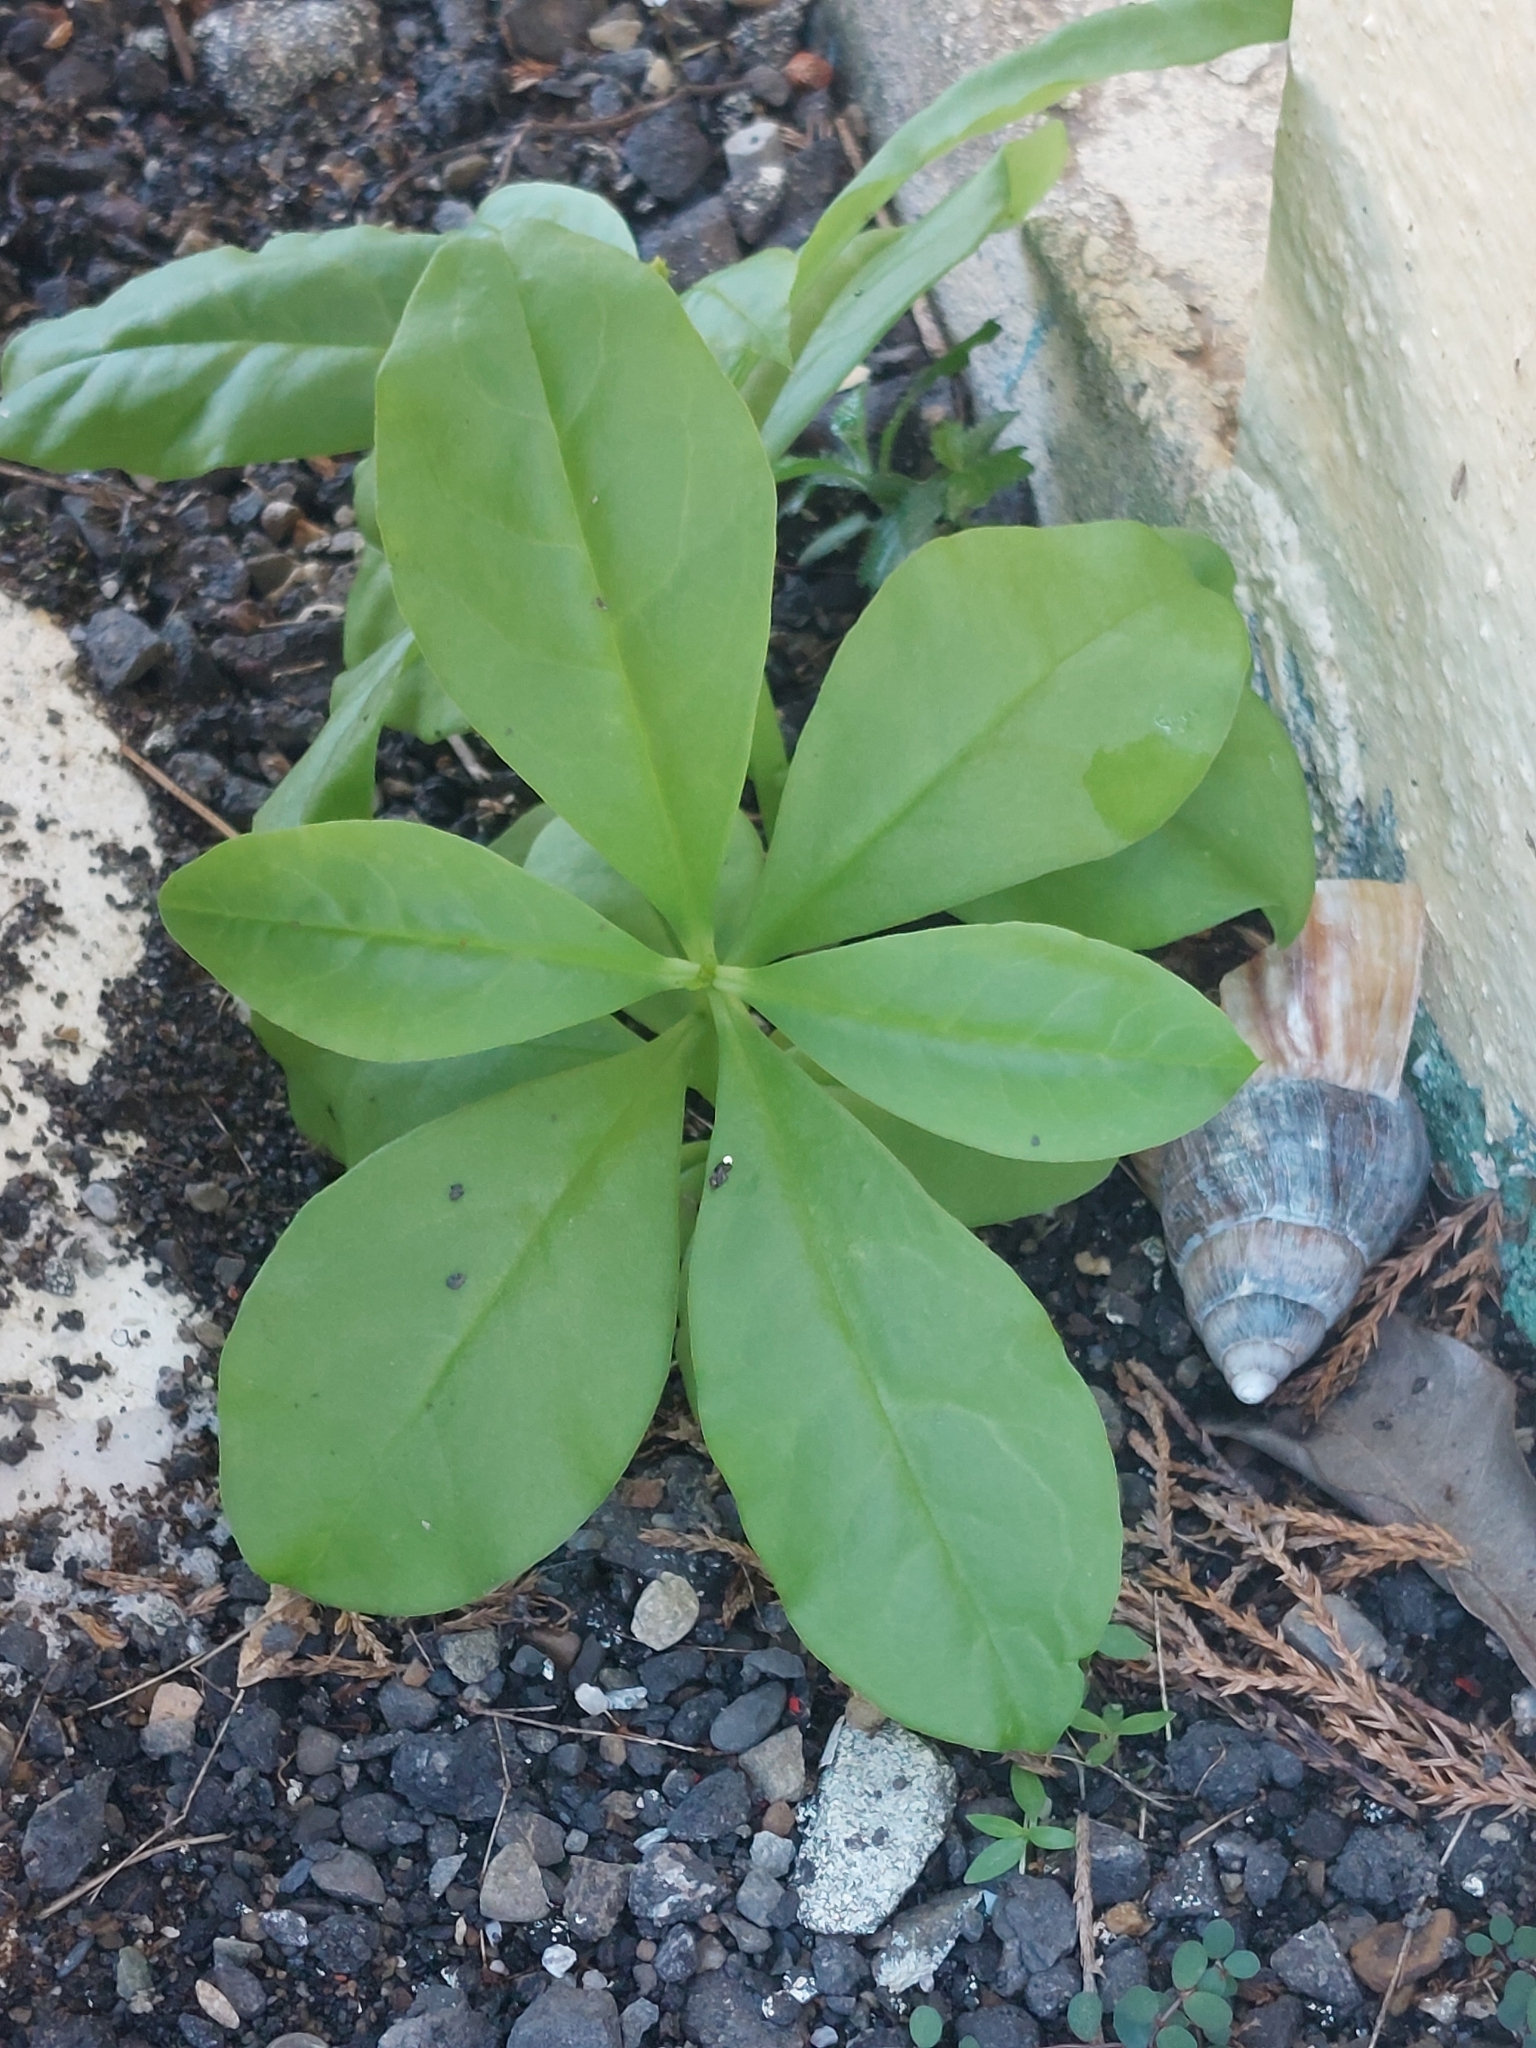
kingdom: Plantae
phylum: Tracheophyta
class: Magnoliopsida
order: Caryophyllales
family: Talinaceae
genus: Talinum
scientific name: Talinum paniculatum
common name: Jewels of opar
